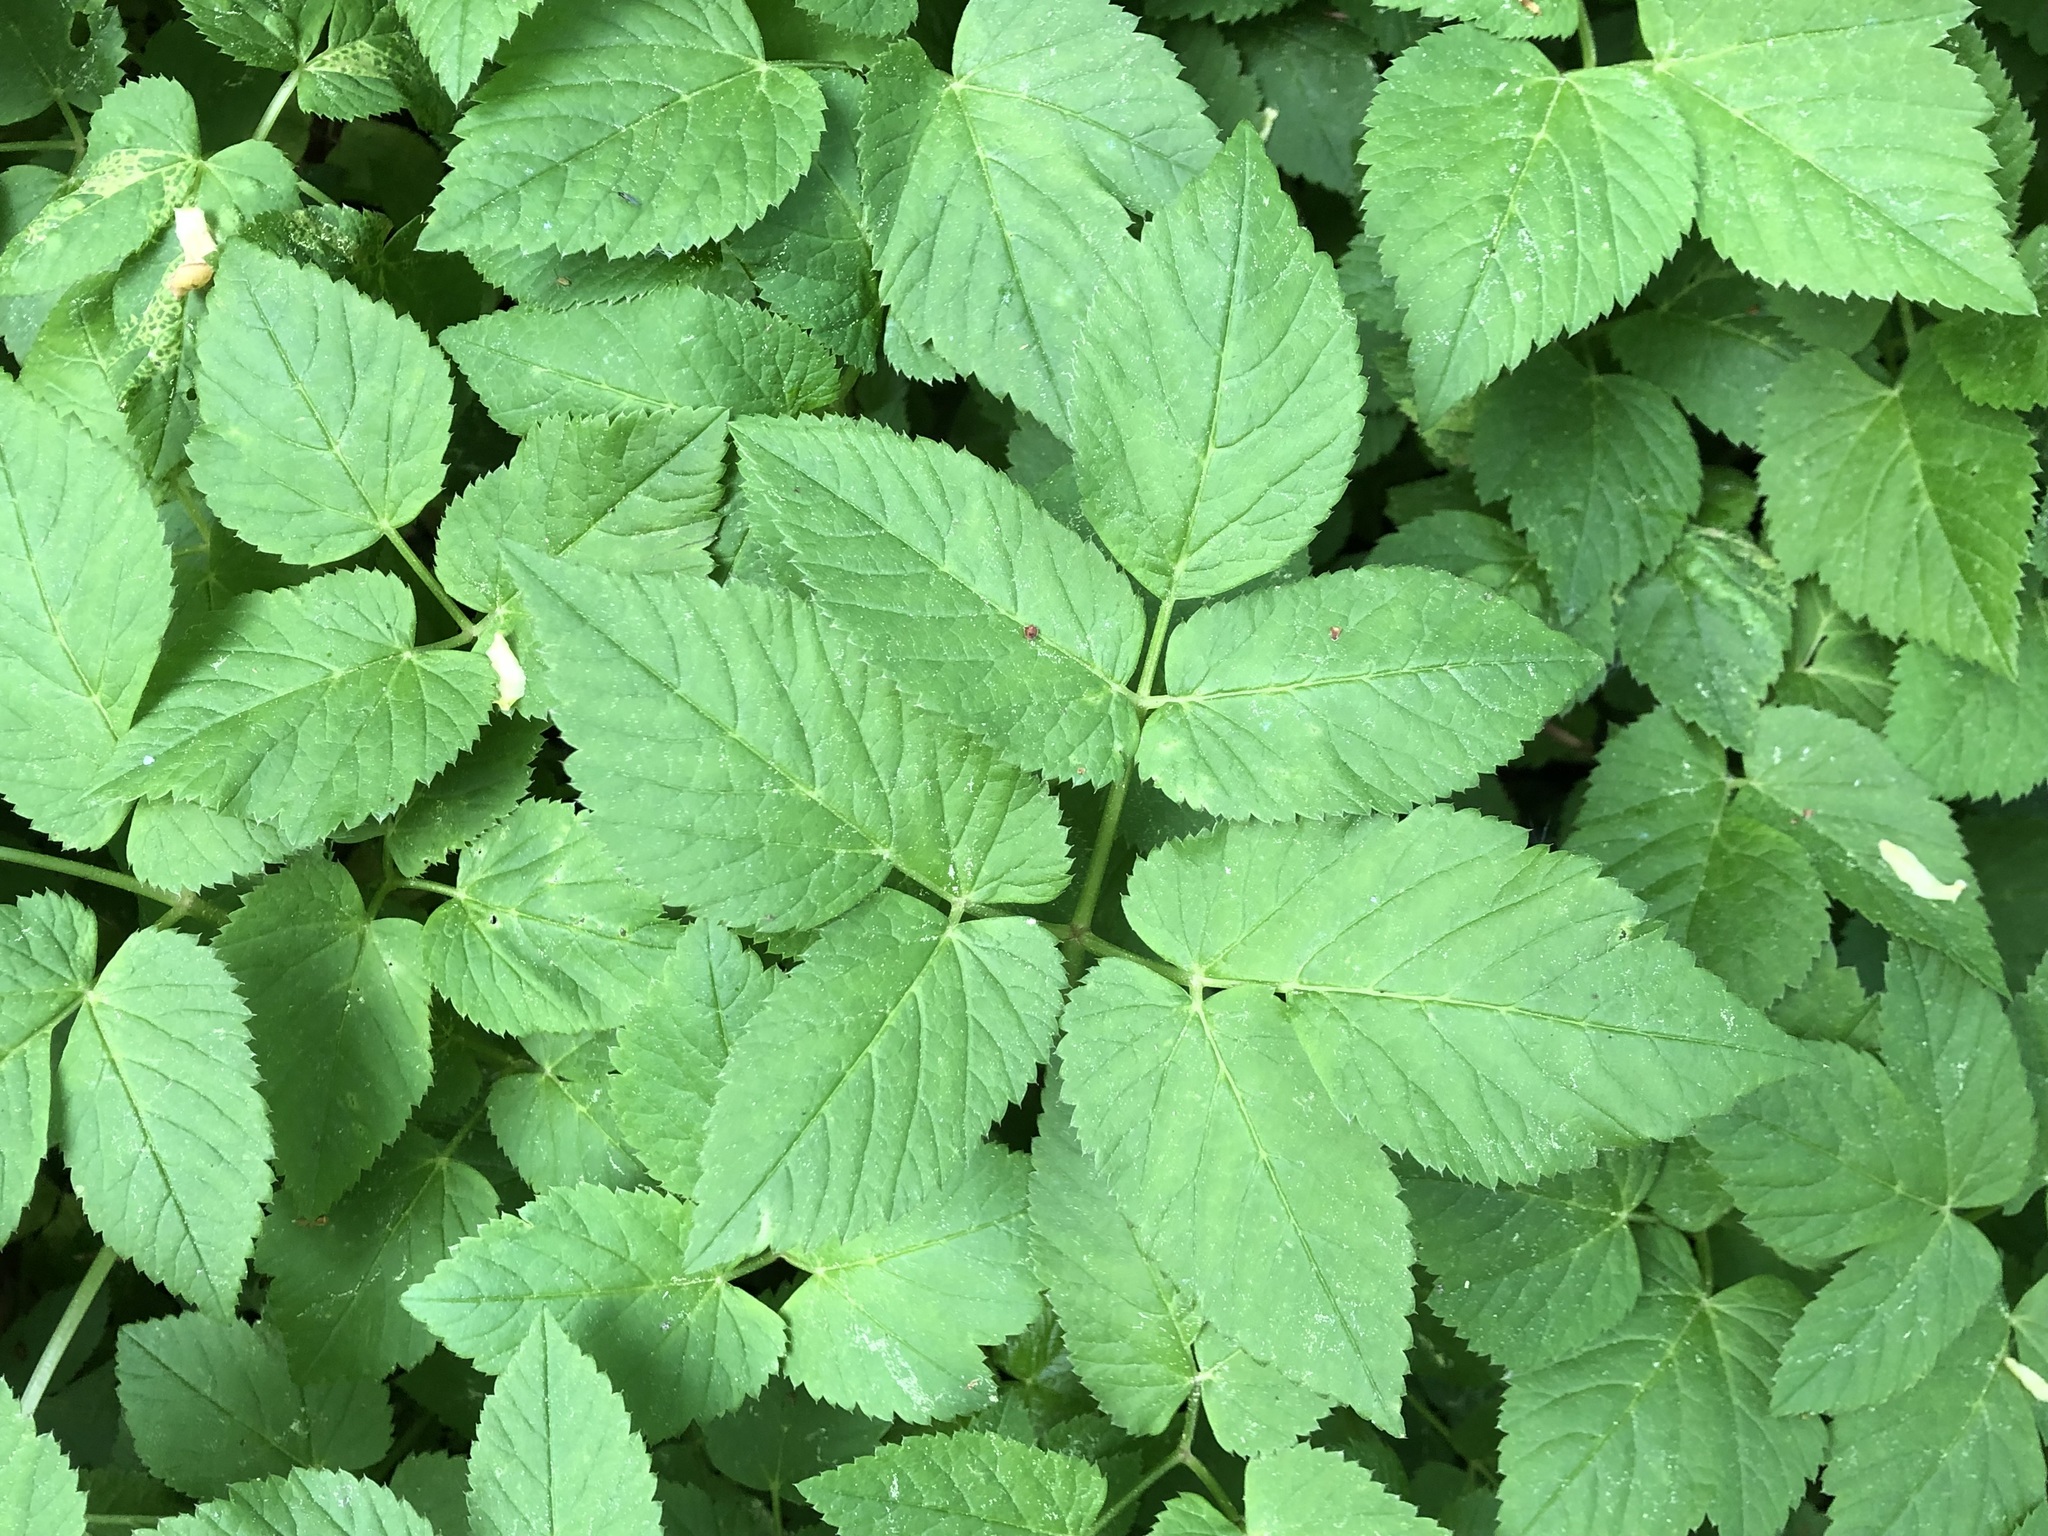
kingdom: Plantae
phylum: Tracheophyta
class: Magnoliopsida
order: Apiales
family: Apiaceae
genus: Aegopodium
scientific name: Aegopodium podagraria
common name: Ground-elder
